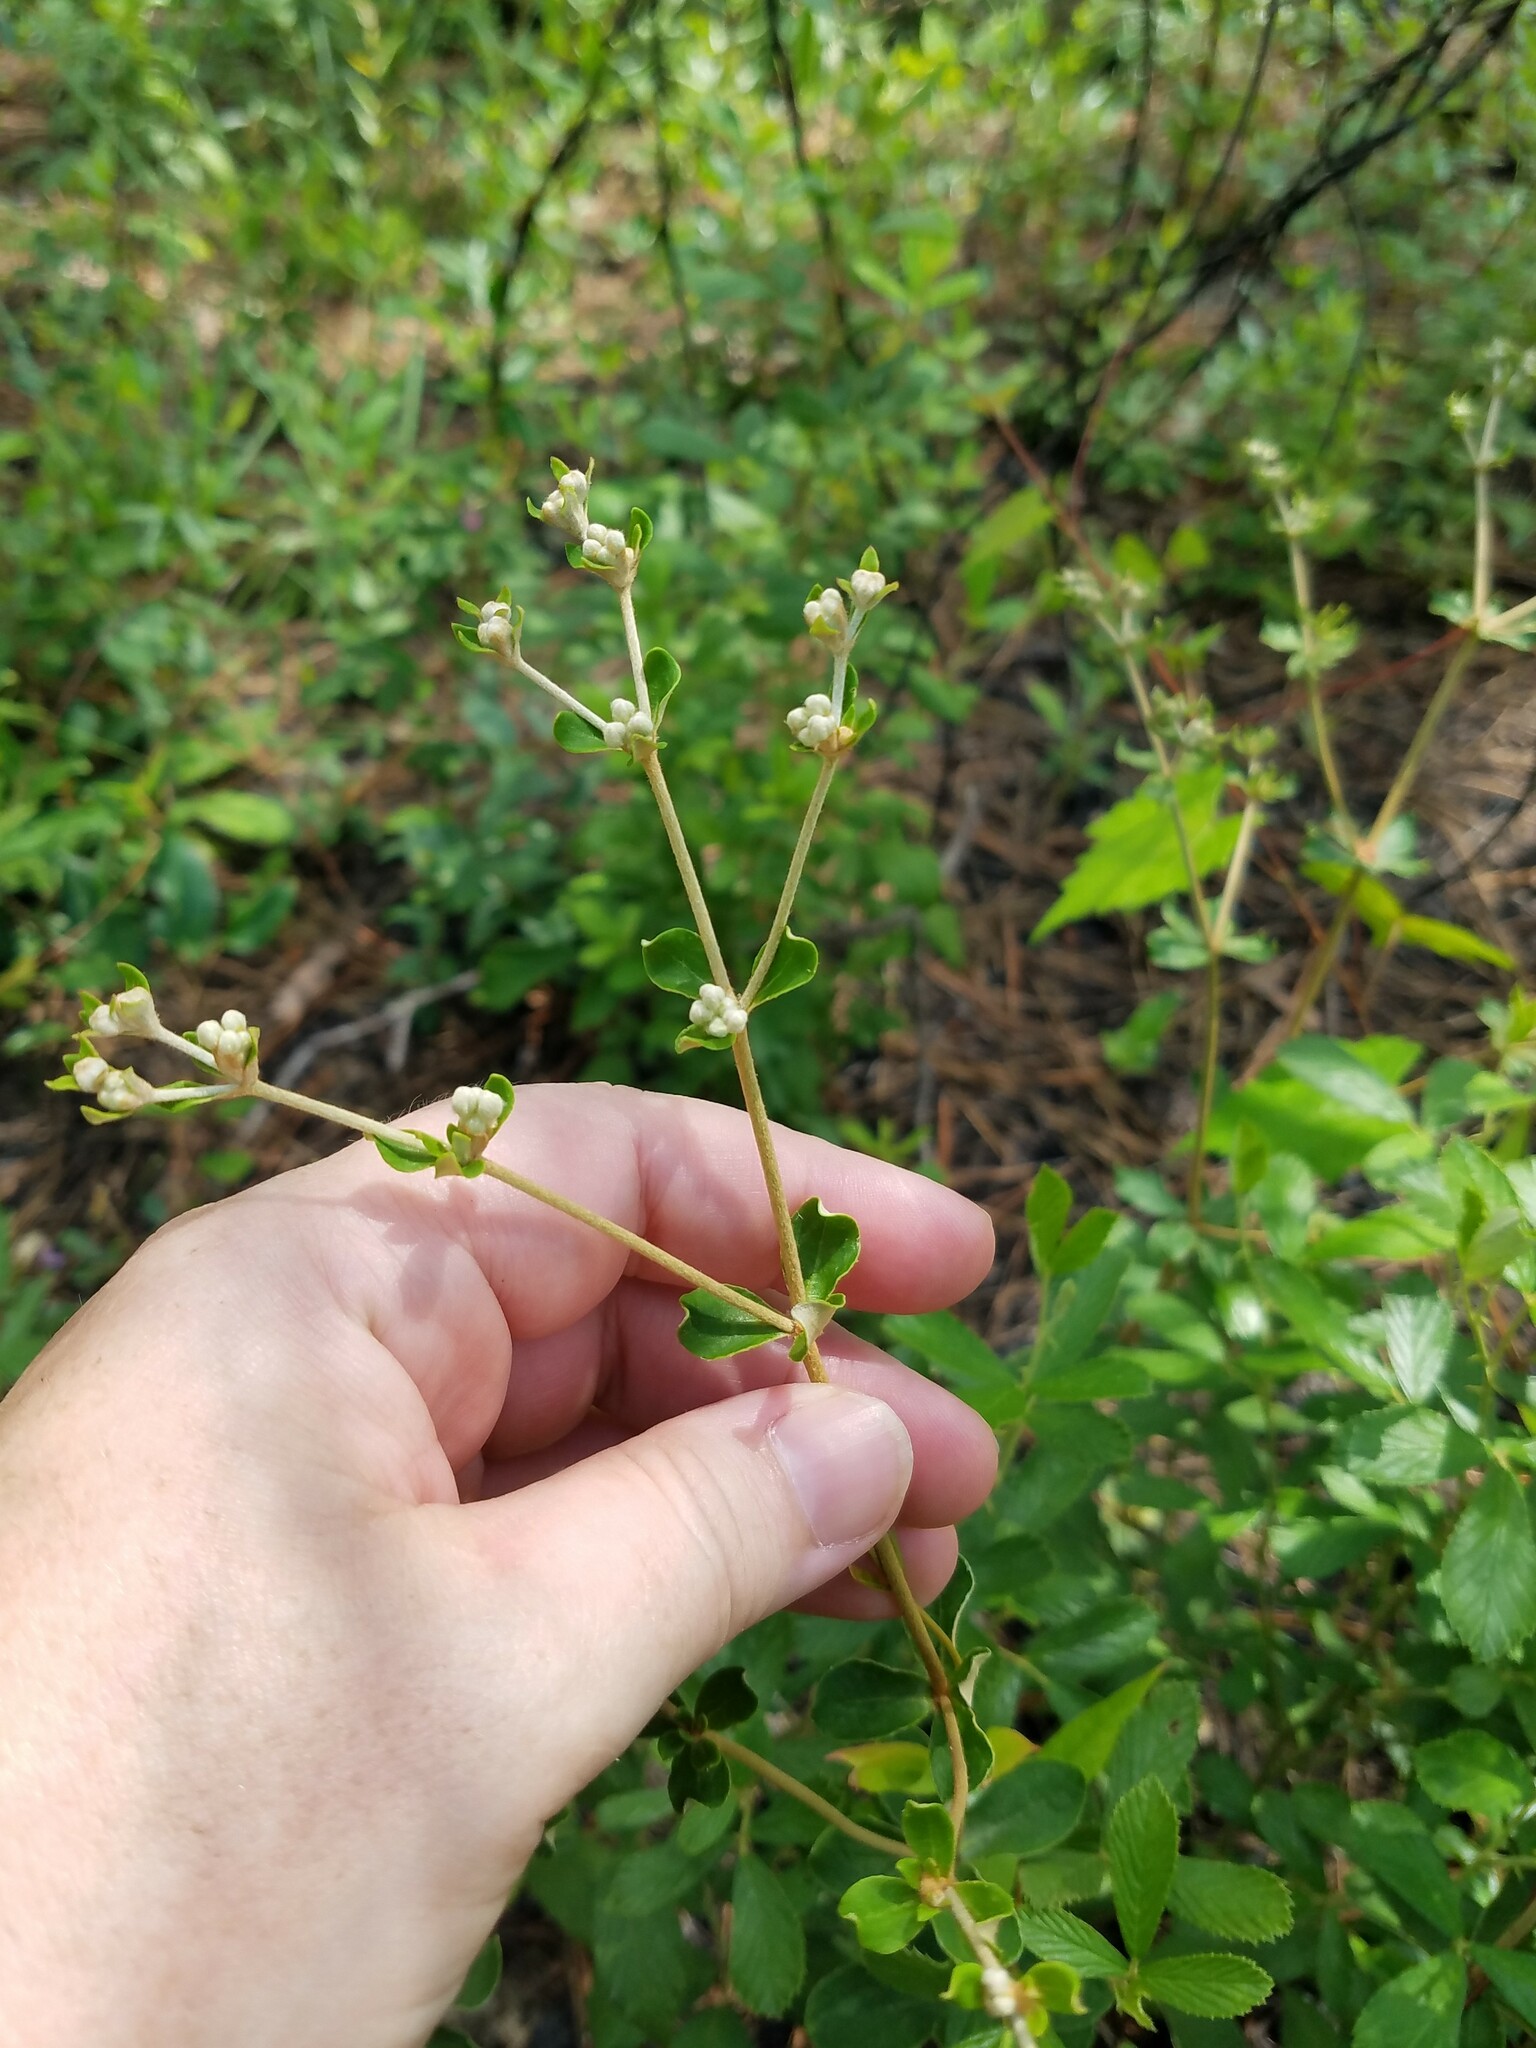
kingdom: Plantae
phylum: Tracheophyta
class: Magnoliopsida
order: Caryophyllales
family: Polygonaceae
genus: Eriogonum
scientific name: Eriogonum tomentosum
